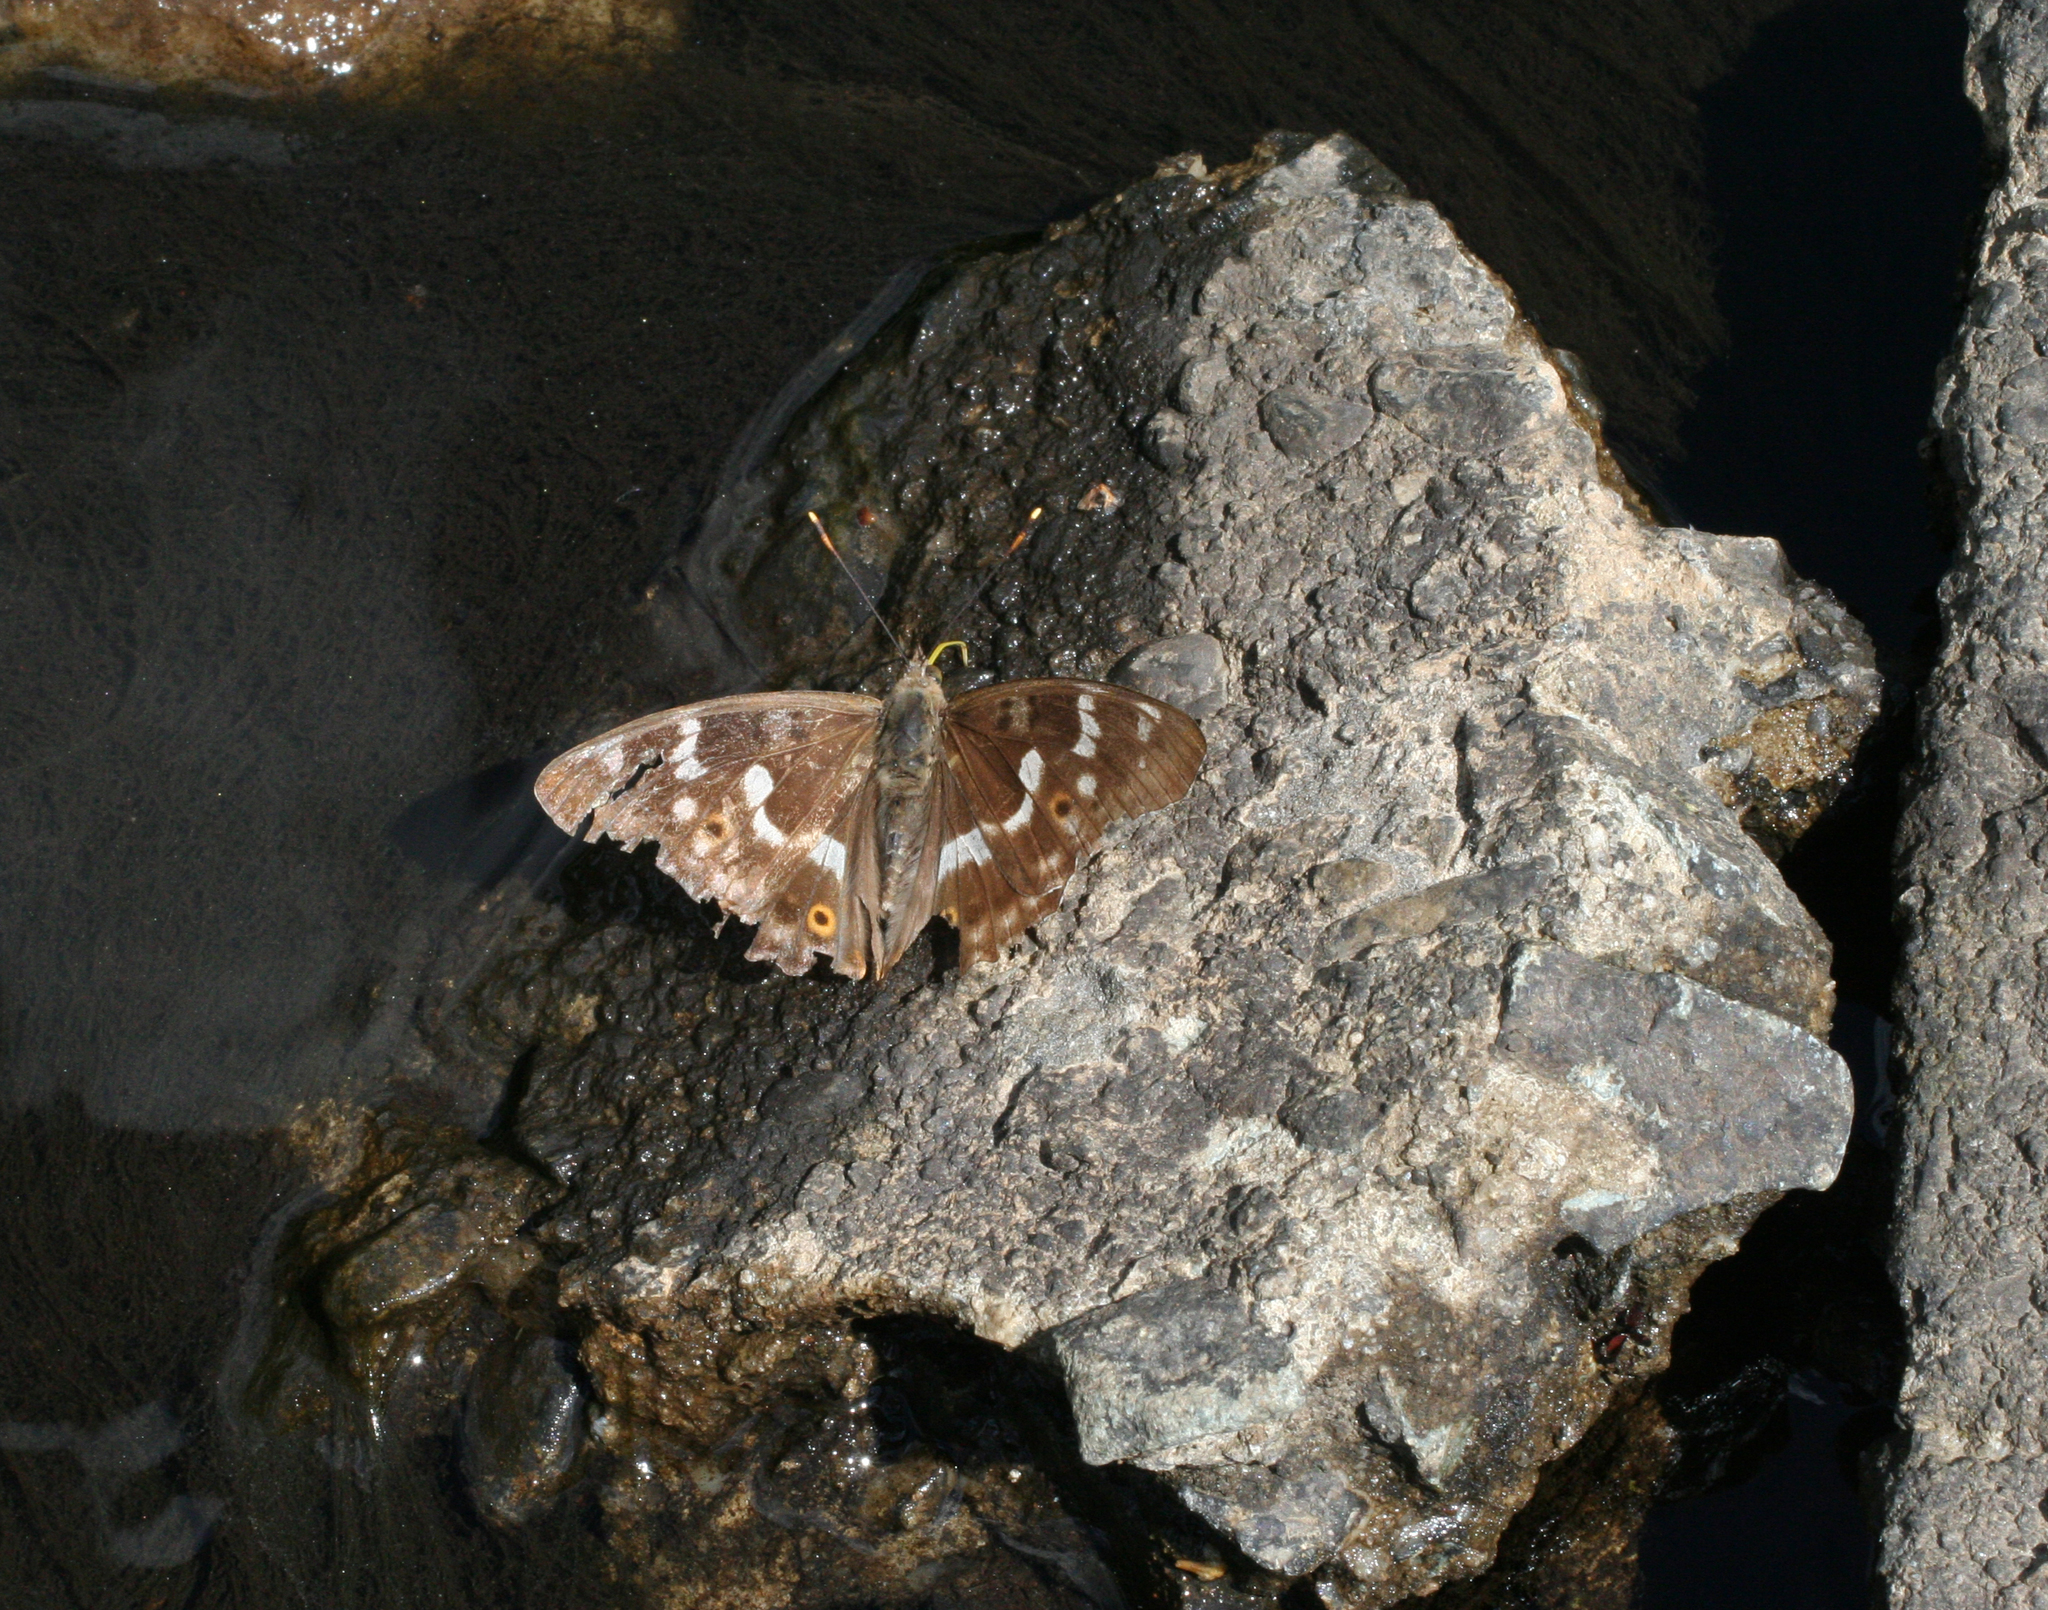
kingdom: Animalia
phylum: Arthropoda
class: Insecta
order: Lepidoptera
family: Nymphalidae
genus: Apatura
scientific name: Apatura ilia
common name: Lesser purple emperor
